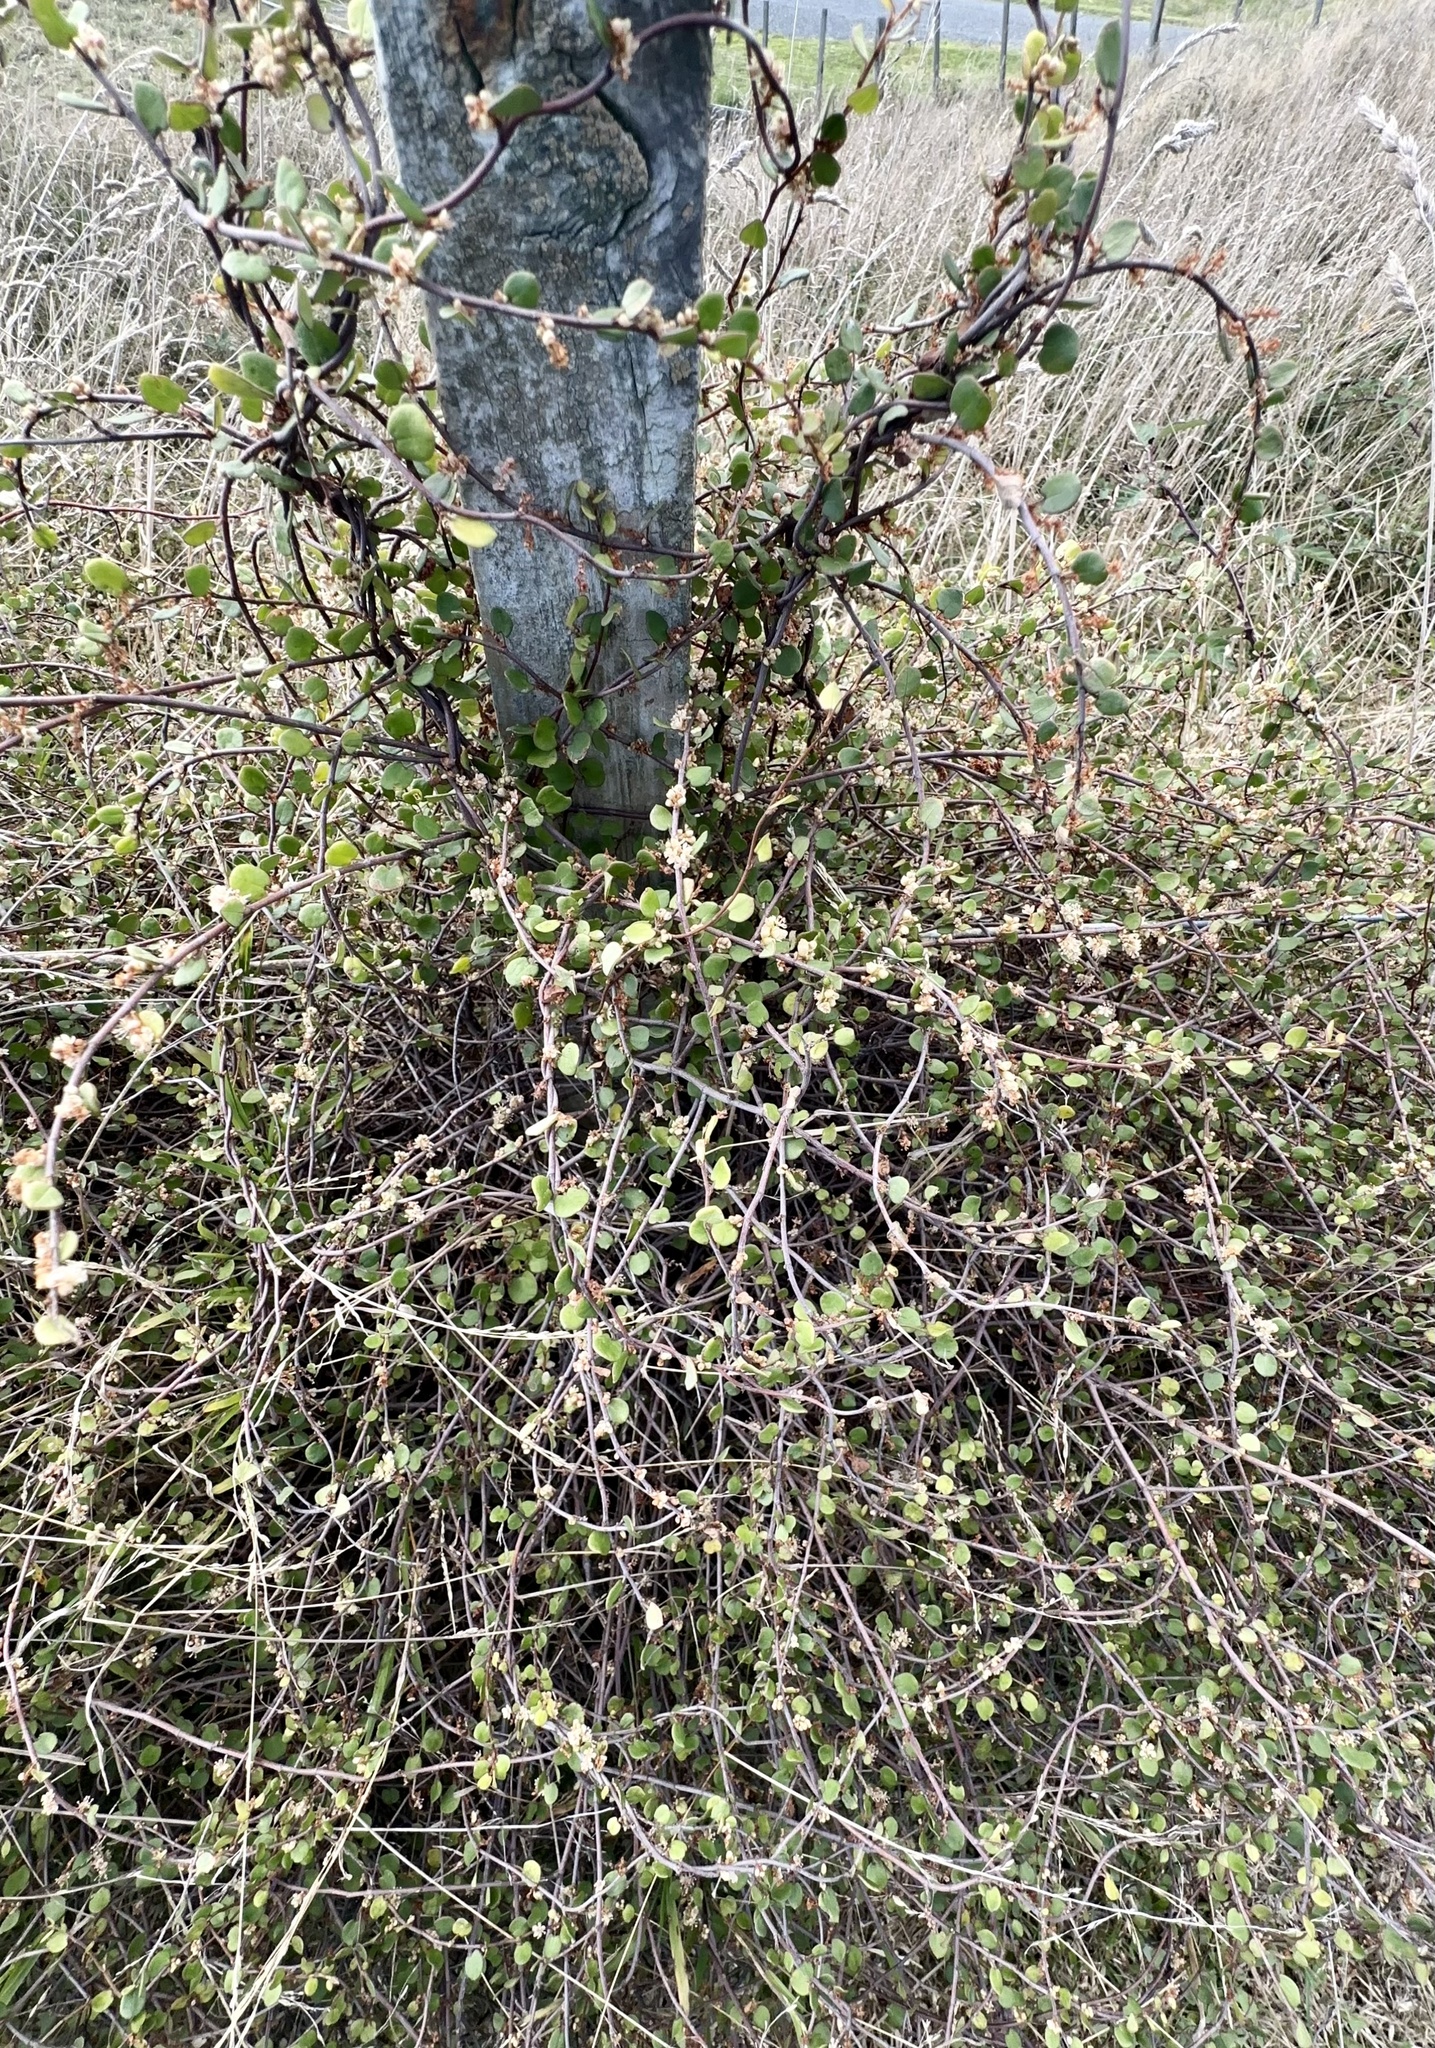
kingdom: Plantae
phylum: Tracheophyta
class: Magnoliopsida
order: Caryophyllales
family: Polygonaceae
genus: Muehlenbeckia
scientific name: Muehlenbeckia complexa
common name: Wireplant
